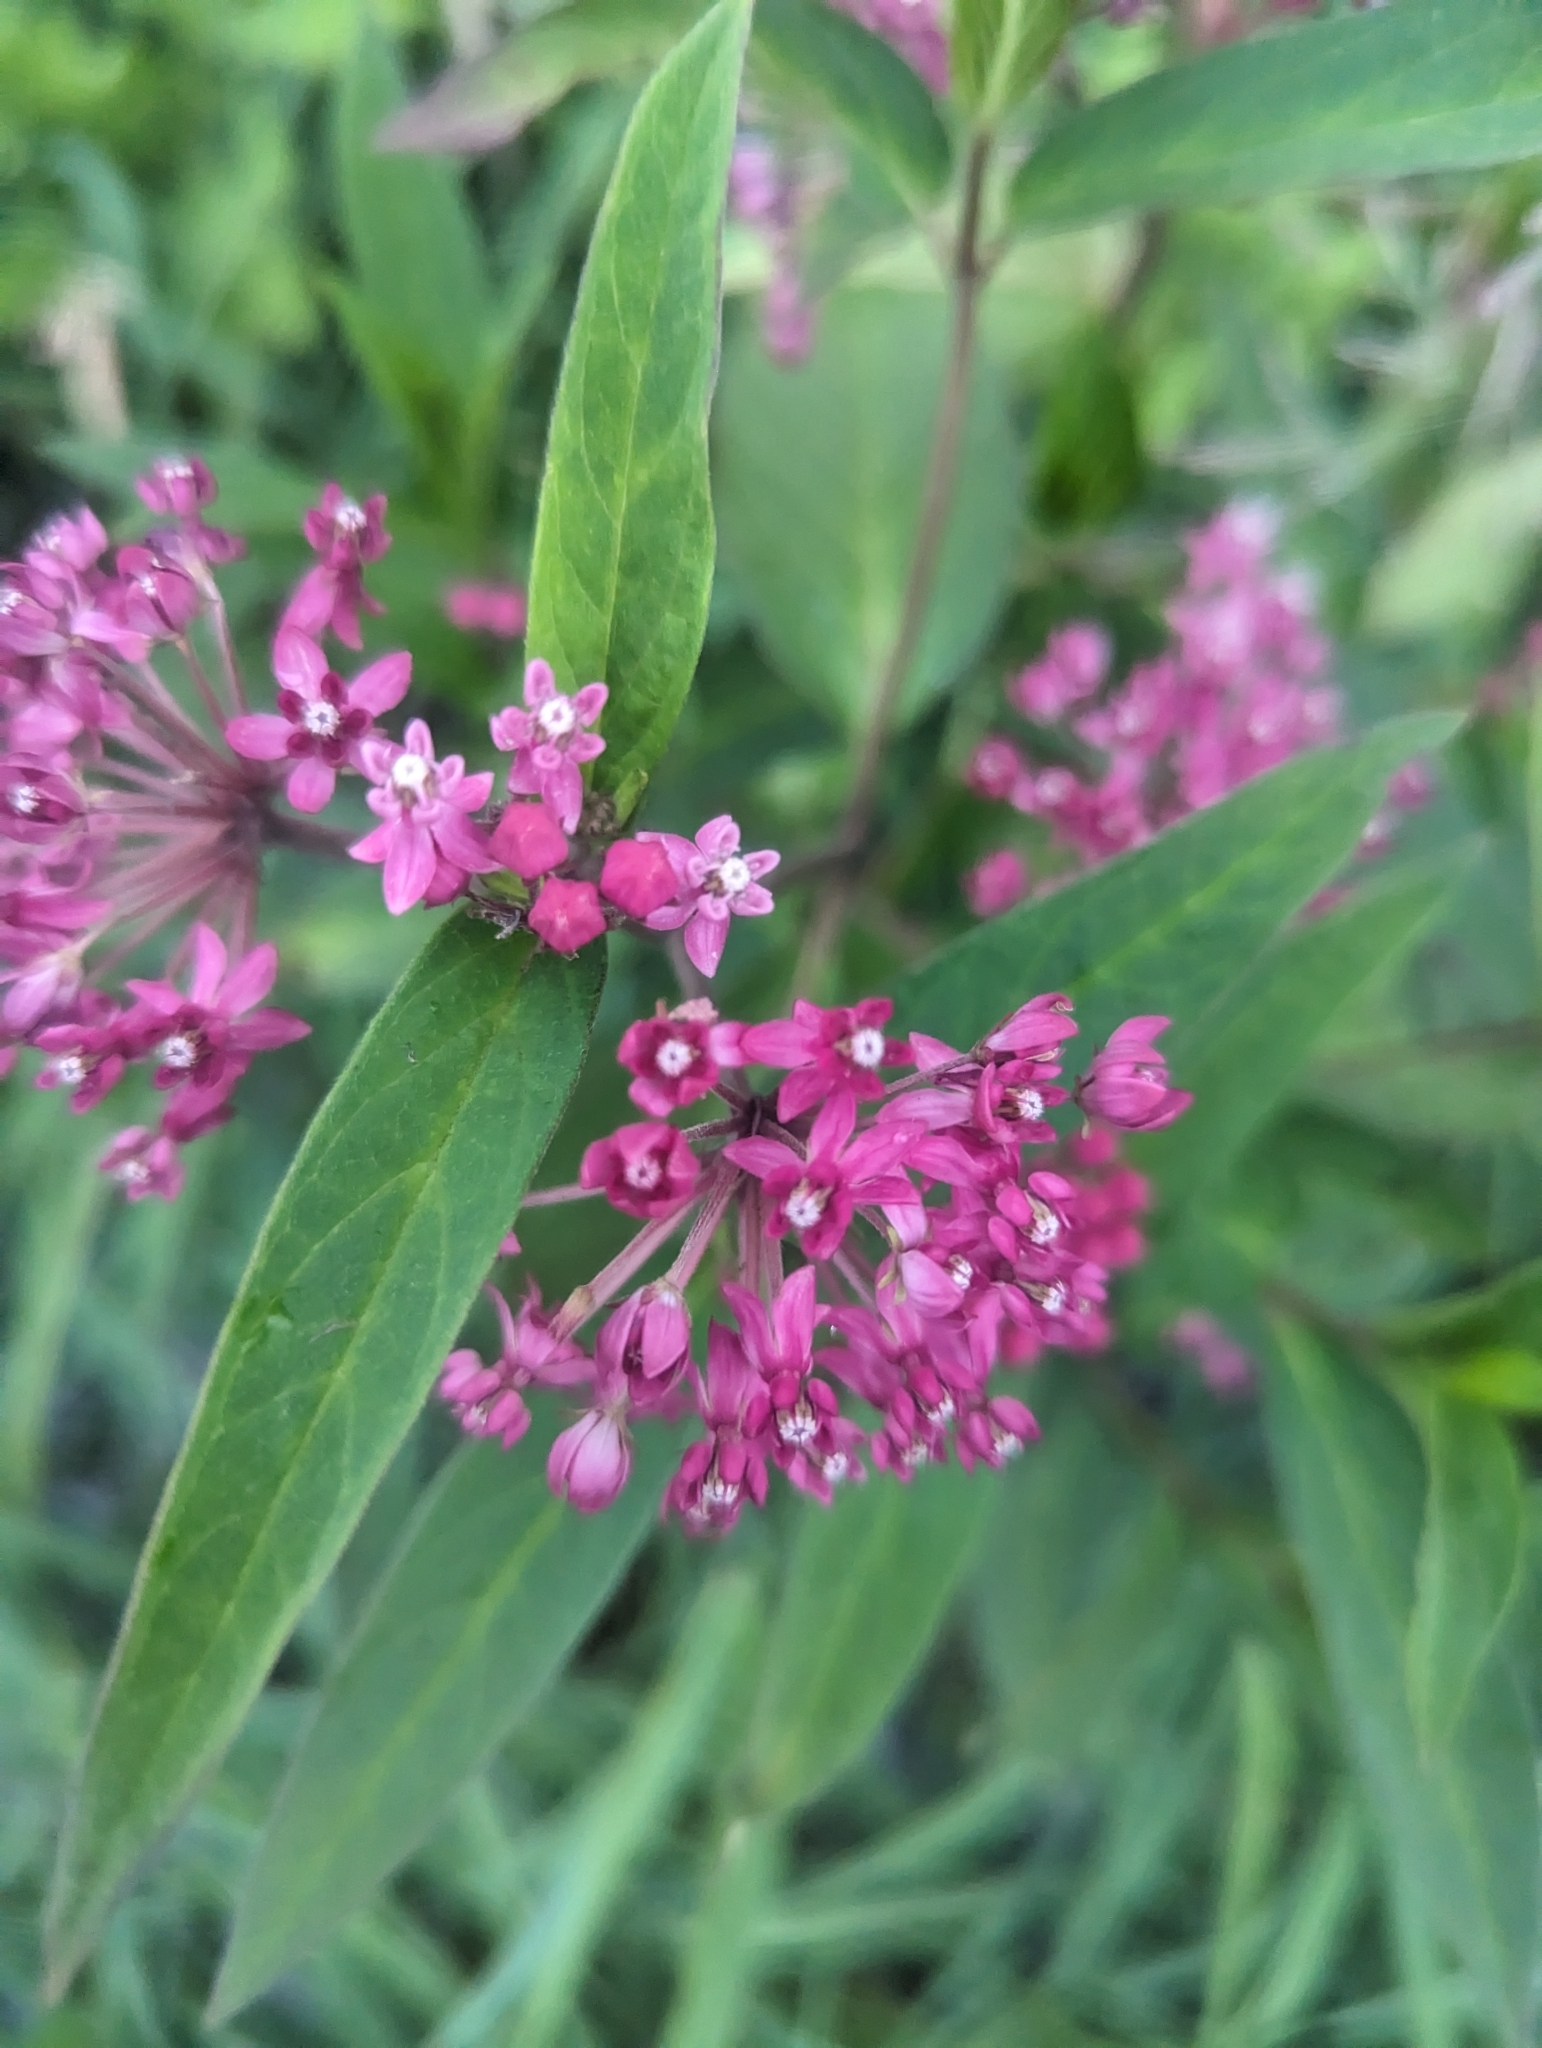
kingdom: Plantae
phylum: Tracheophyta
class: Magnoliopsida
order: Gentianales
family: Apocynaceae
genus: Asclepias
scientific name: Asclepias incarnata
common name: Swamp milkweed
